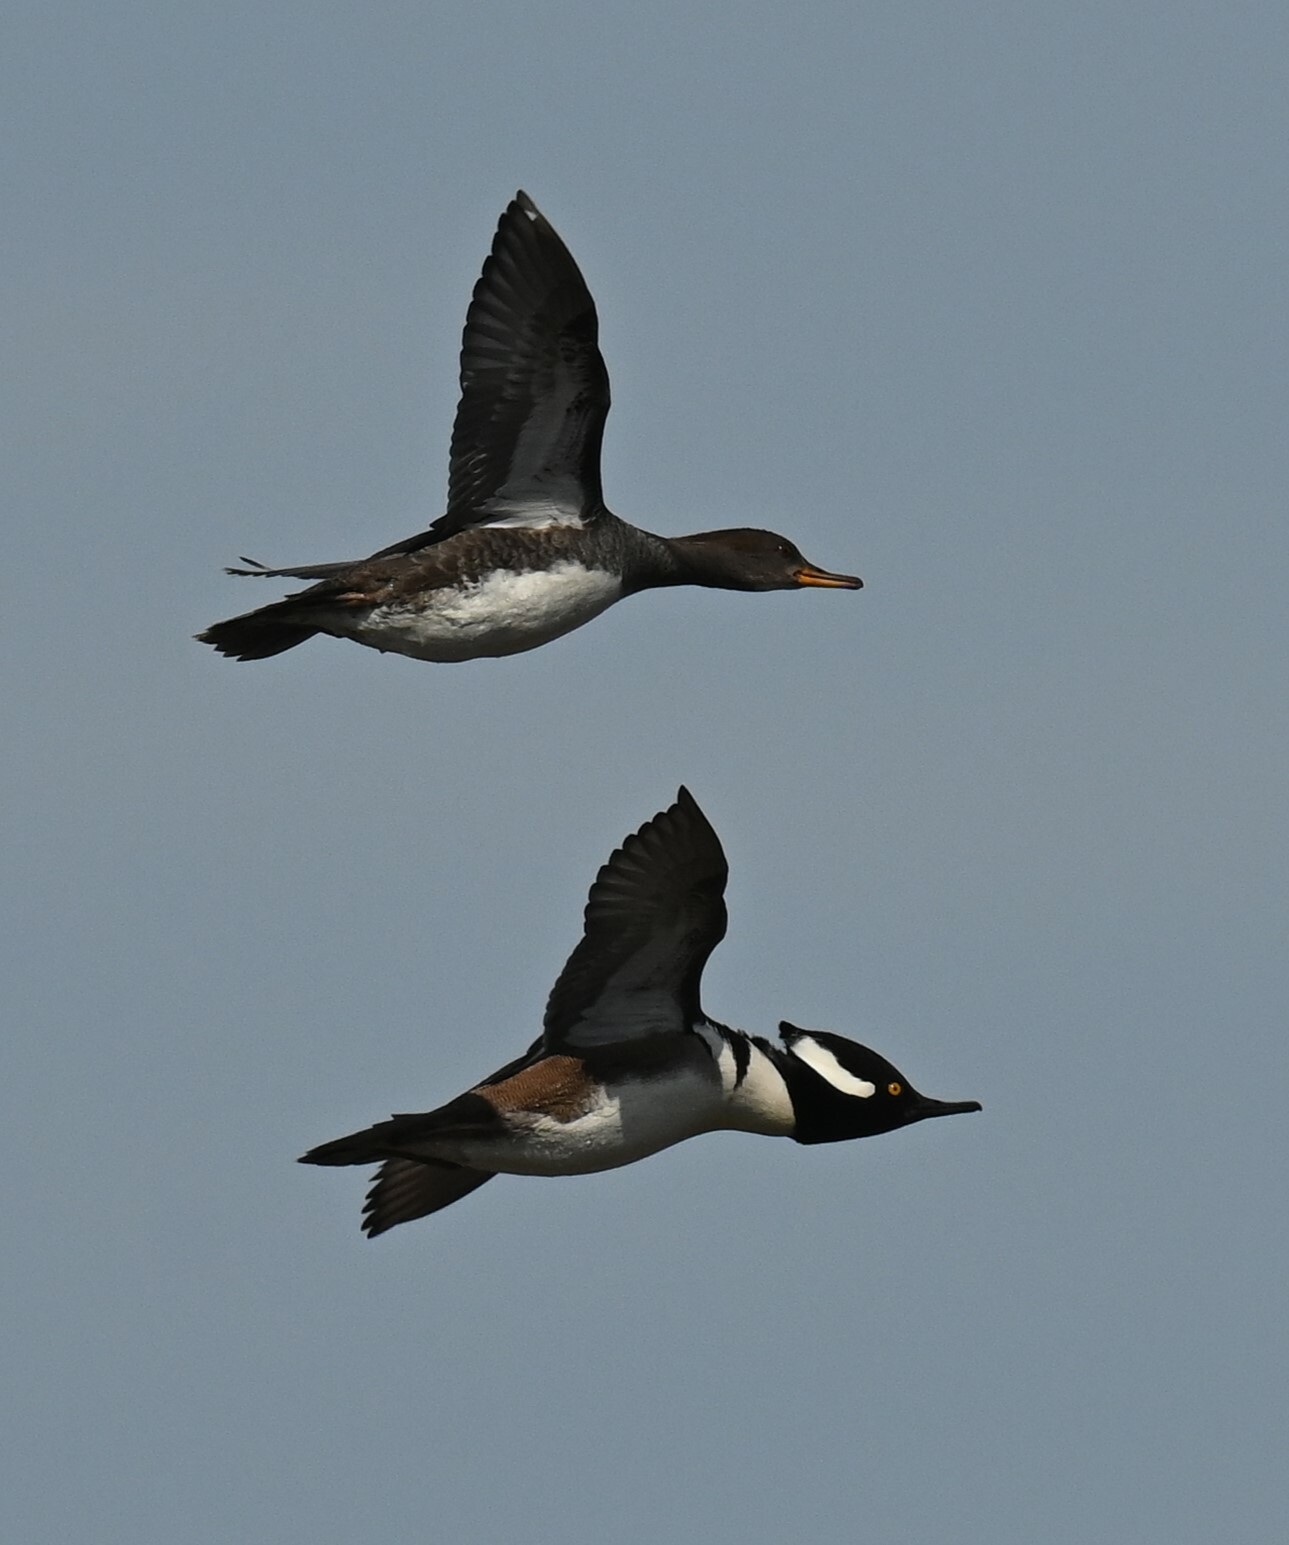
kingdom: Animalia
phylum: Chordata
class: Aves
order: Anseriformes
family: Anatidae
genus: Lophodytes
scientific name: Lophodytes cucullatus
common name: Hooded merganser
